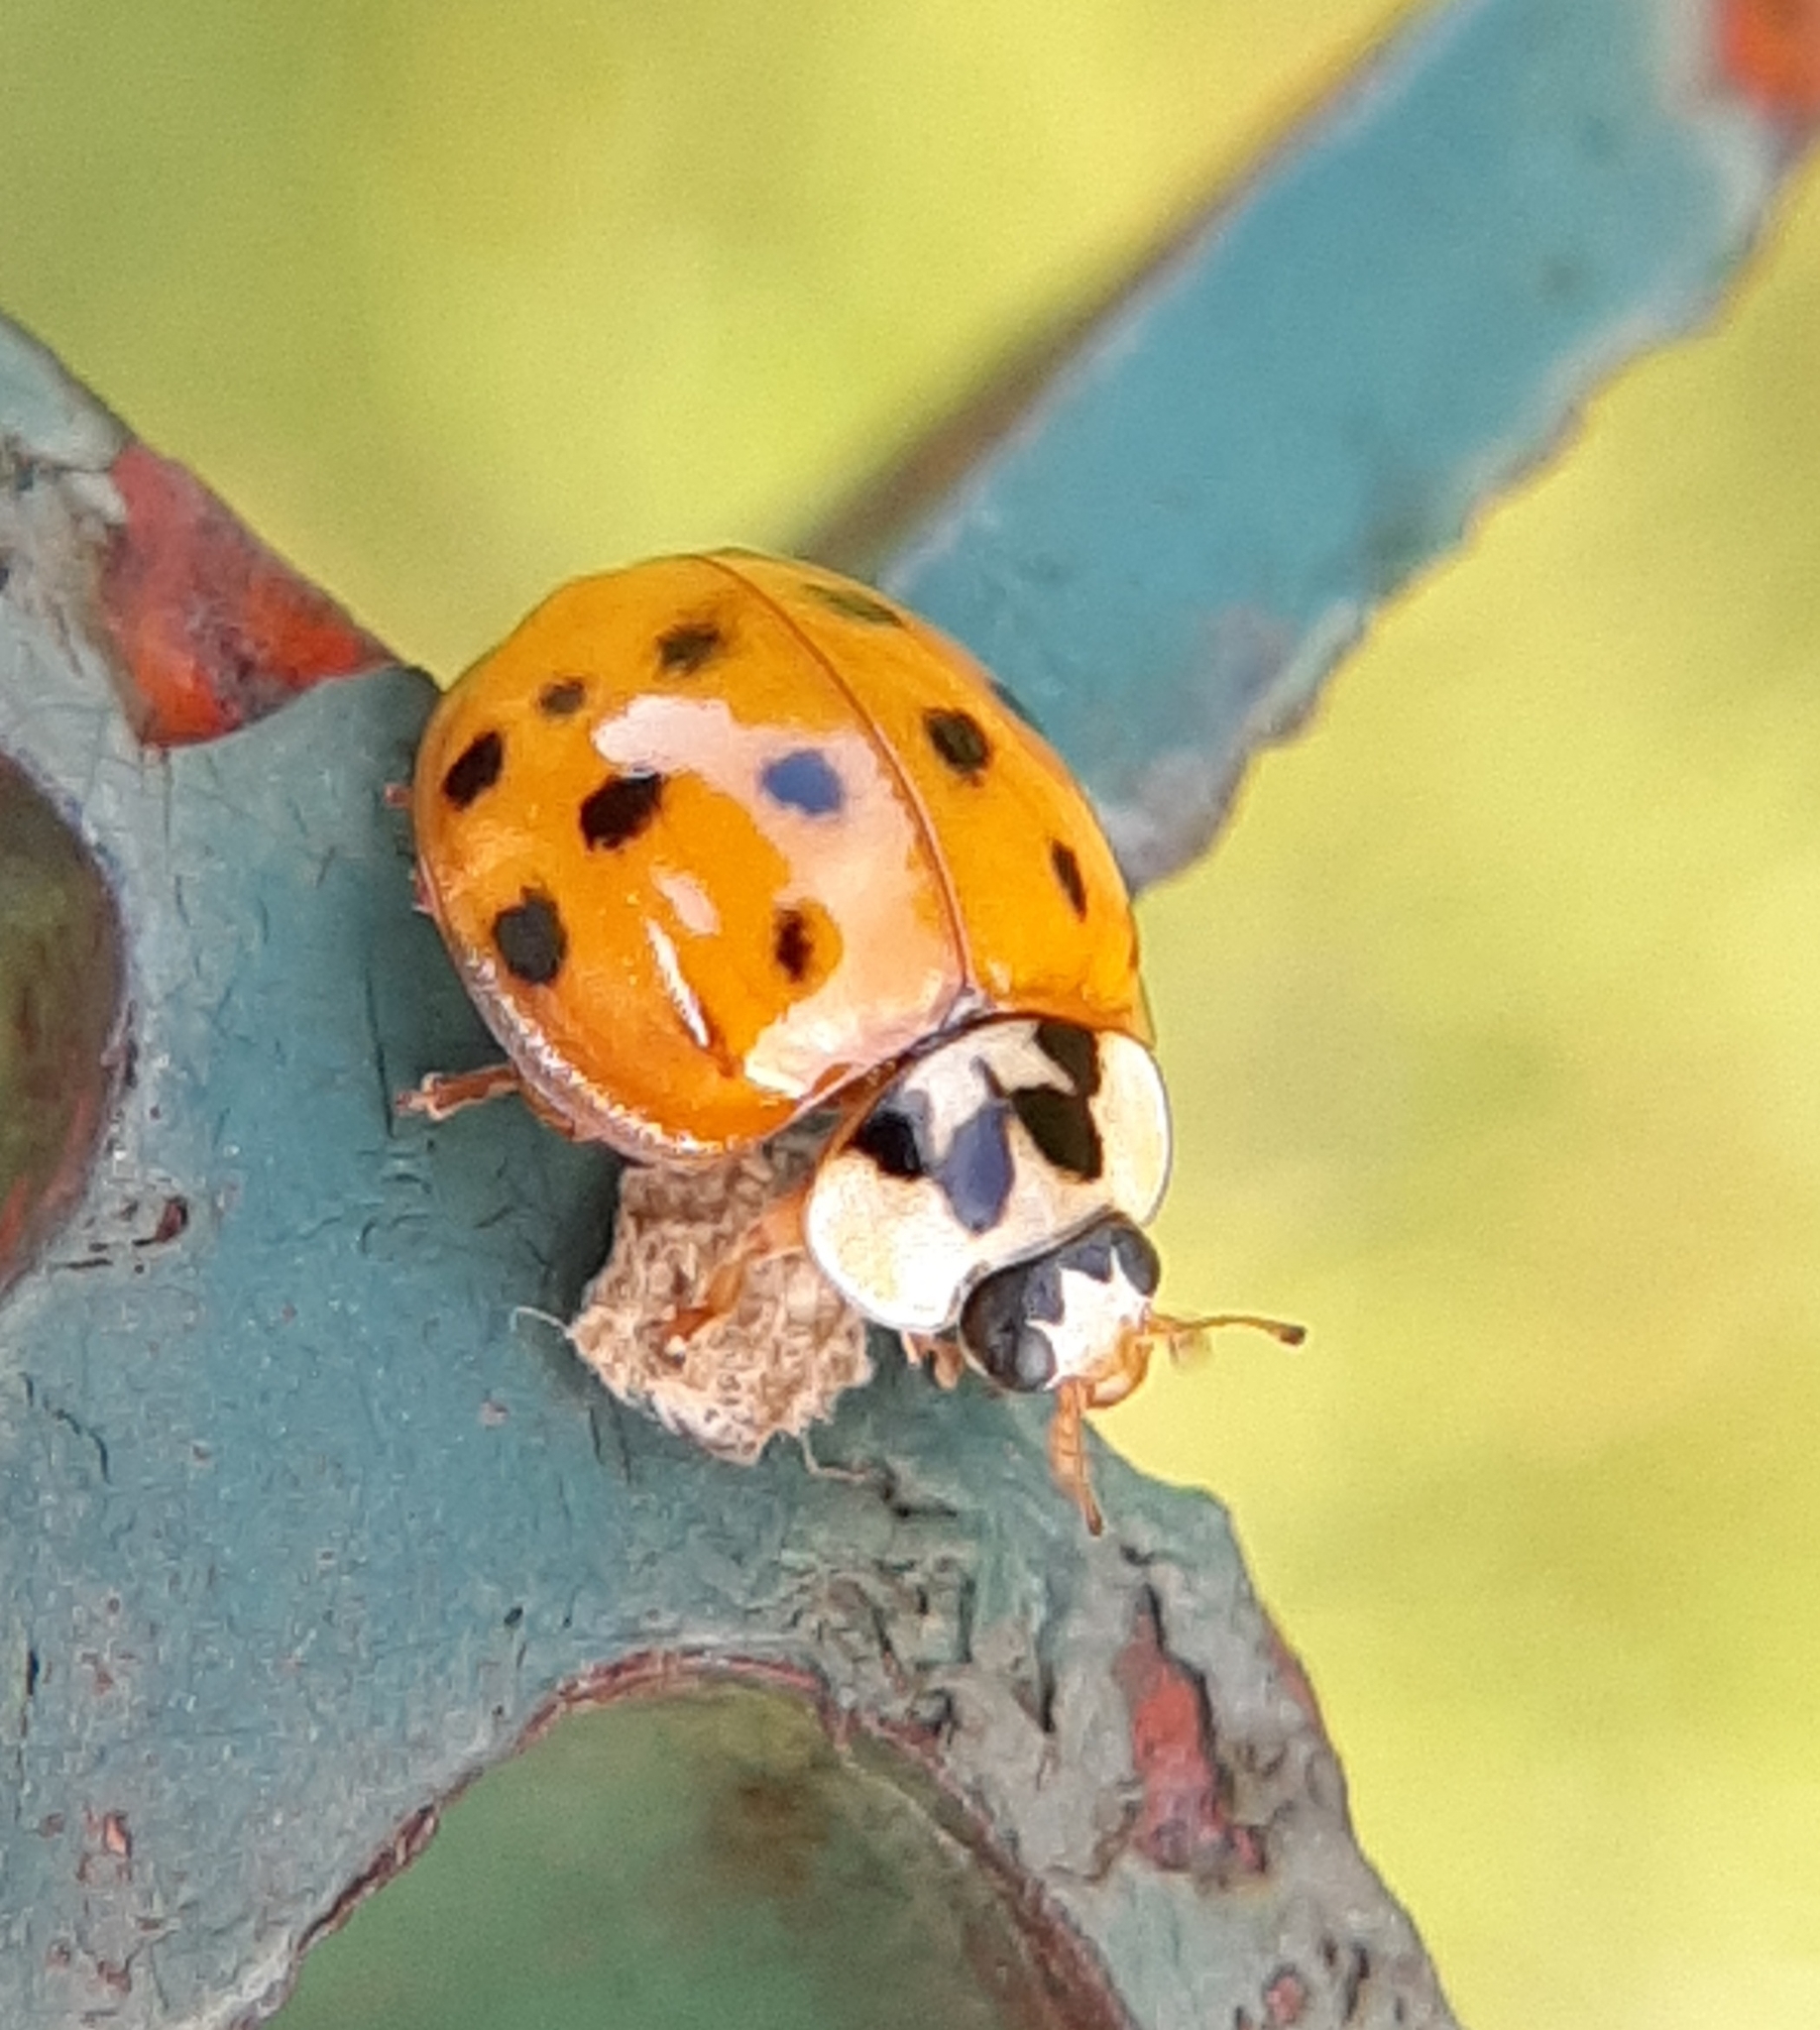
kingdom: Animalia
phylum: Arthropoda
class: Insecta
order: Coleoptera
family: Coccinellidae
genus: Harmonia
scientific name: Harmonia axyridis
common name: Harlequin ladybird
